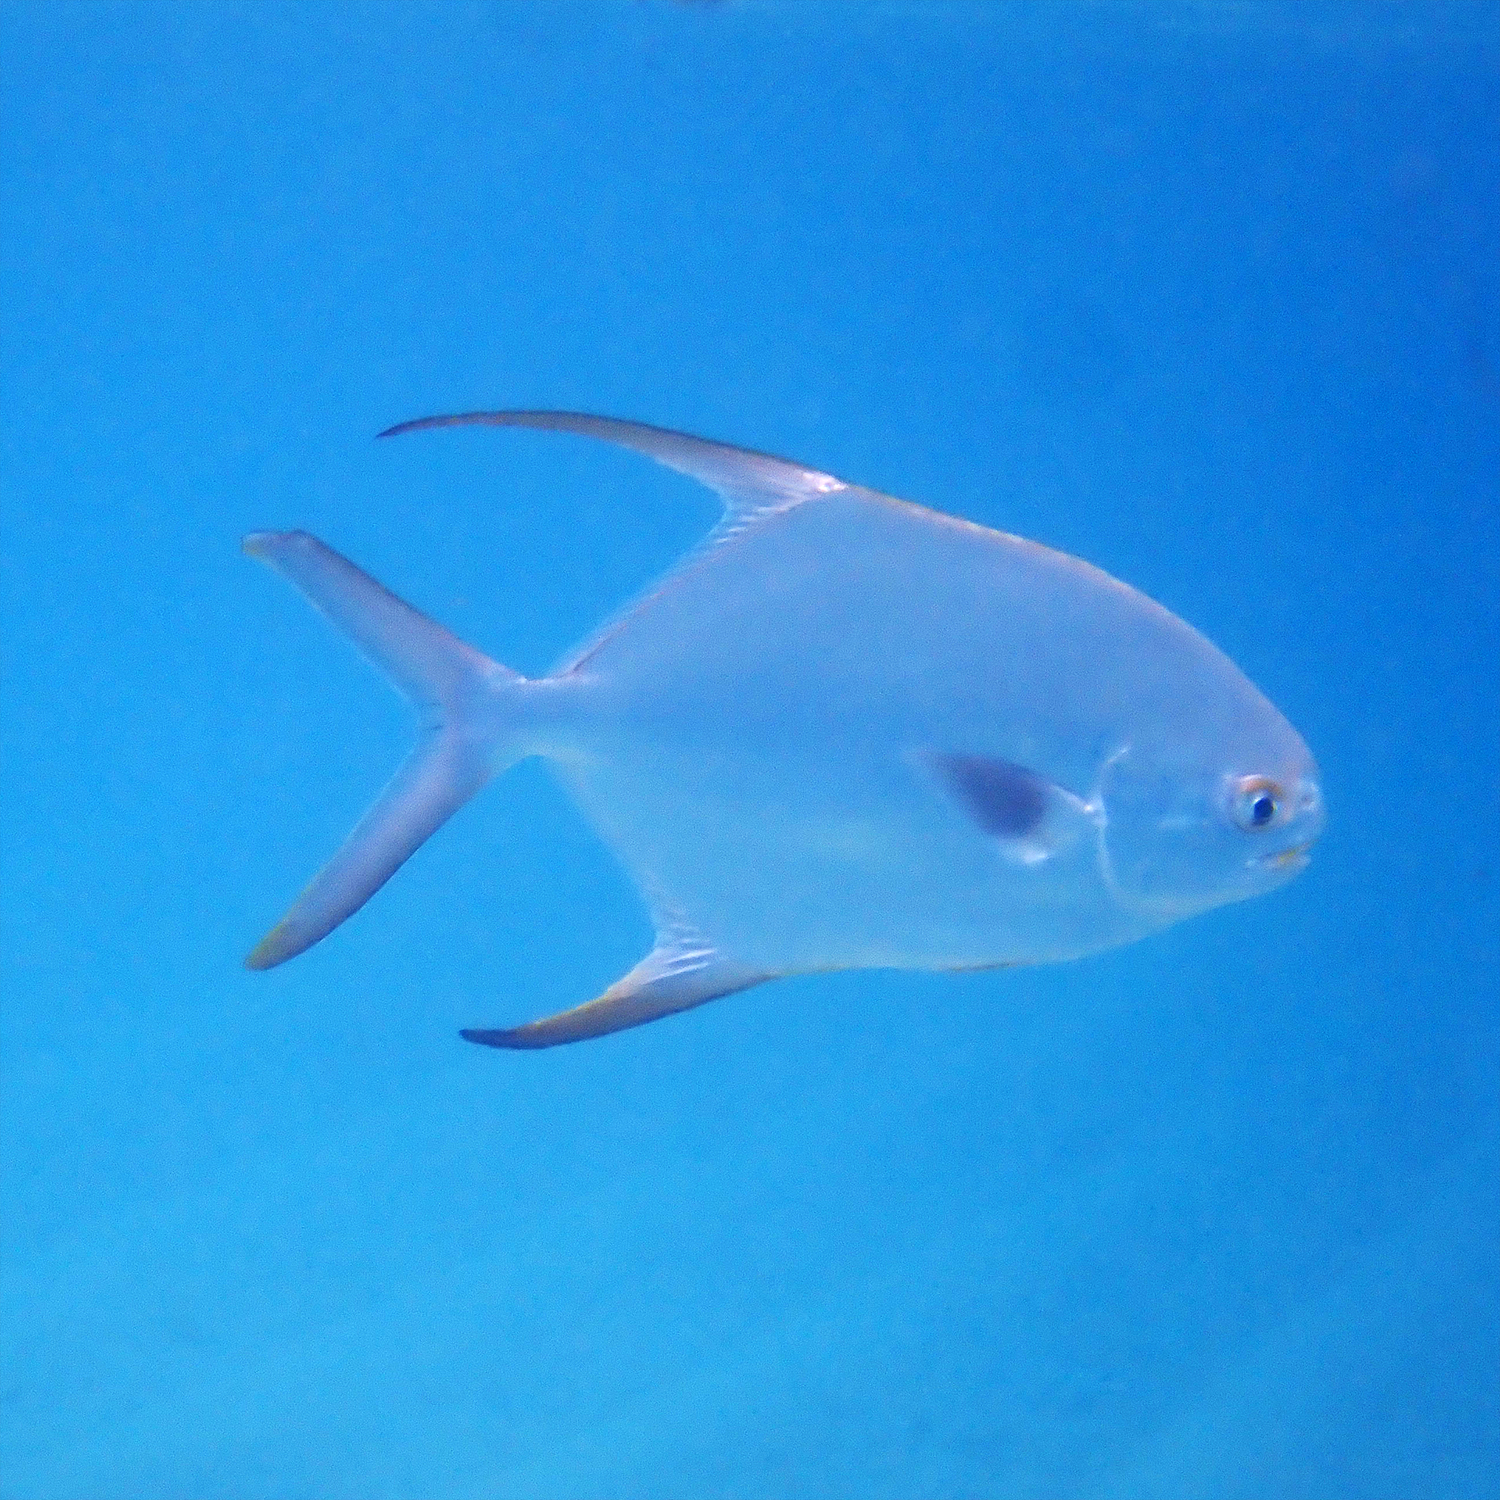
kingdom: Animalia
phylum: Chordata
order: Perciformes
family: Carangidae
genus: Trachinotus
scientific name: Trachinotus blochii
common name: Snubnose pompano
